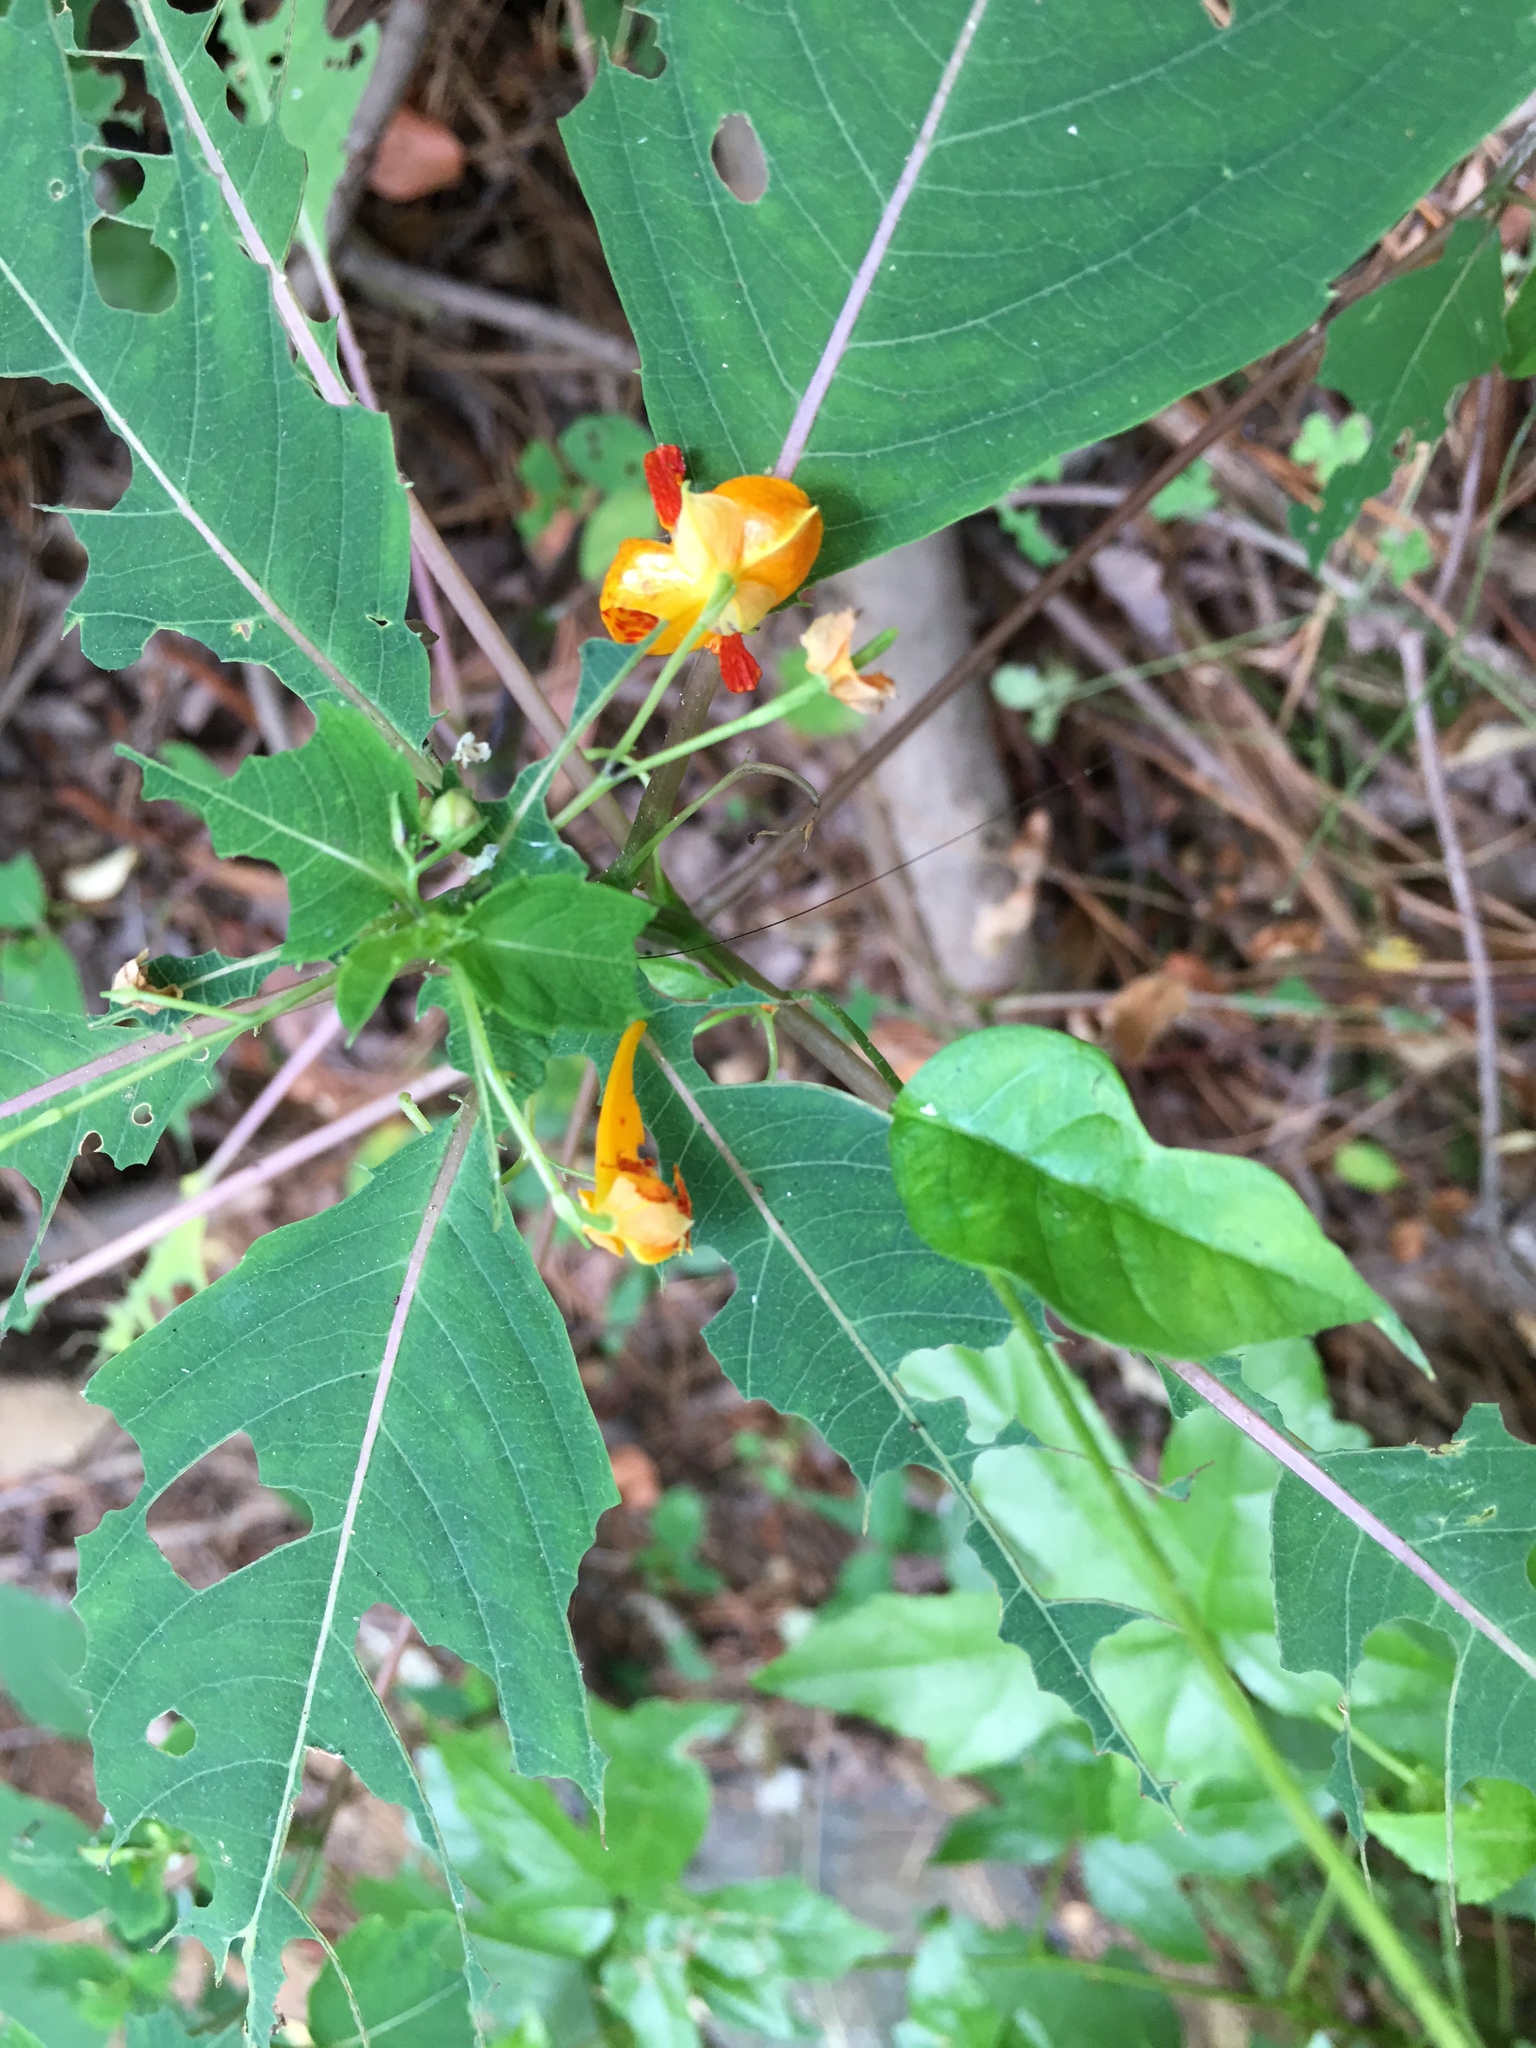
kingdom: Plantae
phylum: Tracheophyta
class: Magnoliopsida
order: Ericales
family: Balsaminaceae
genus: Impatiens
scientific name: Impatiens capensis
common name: Orange balsam
